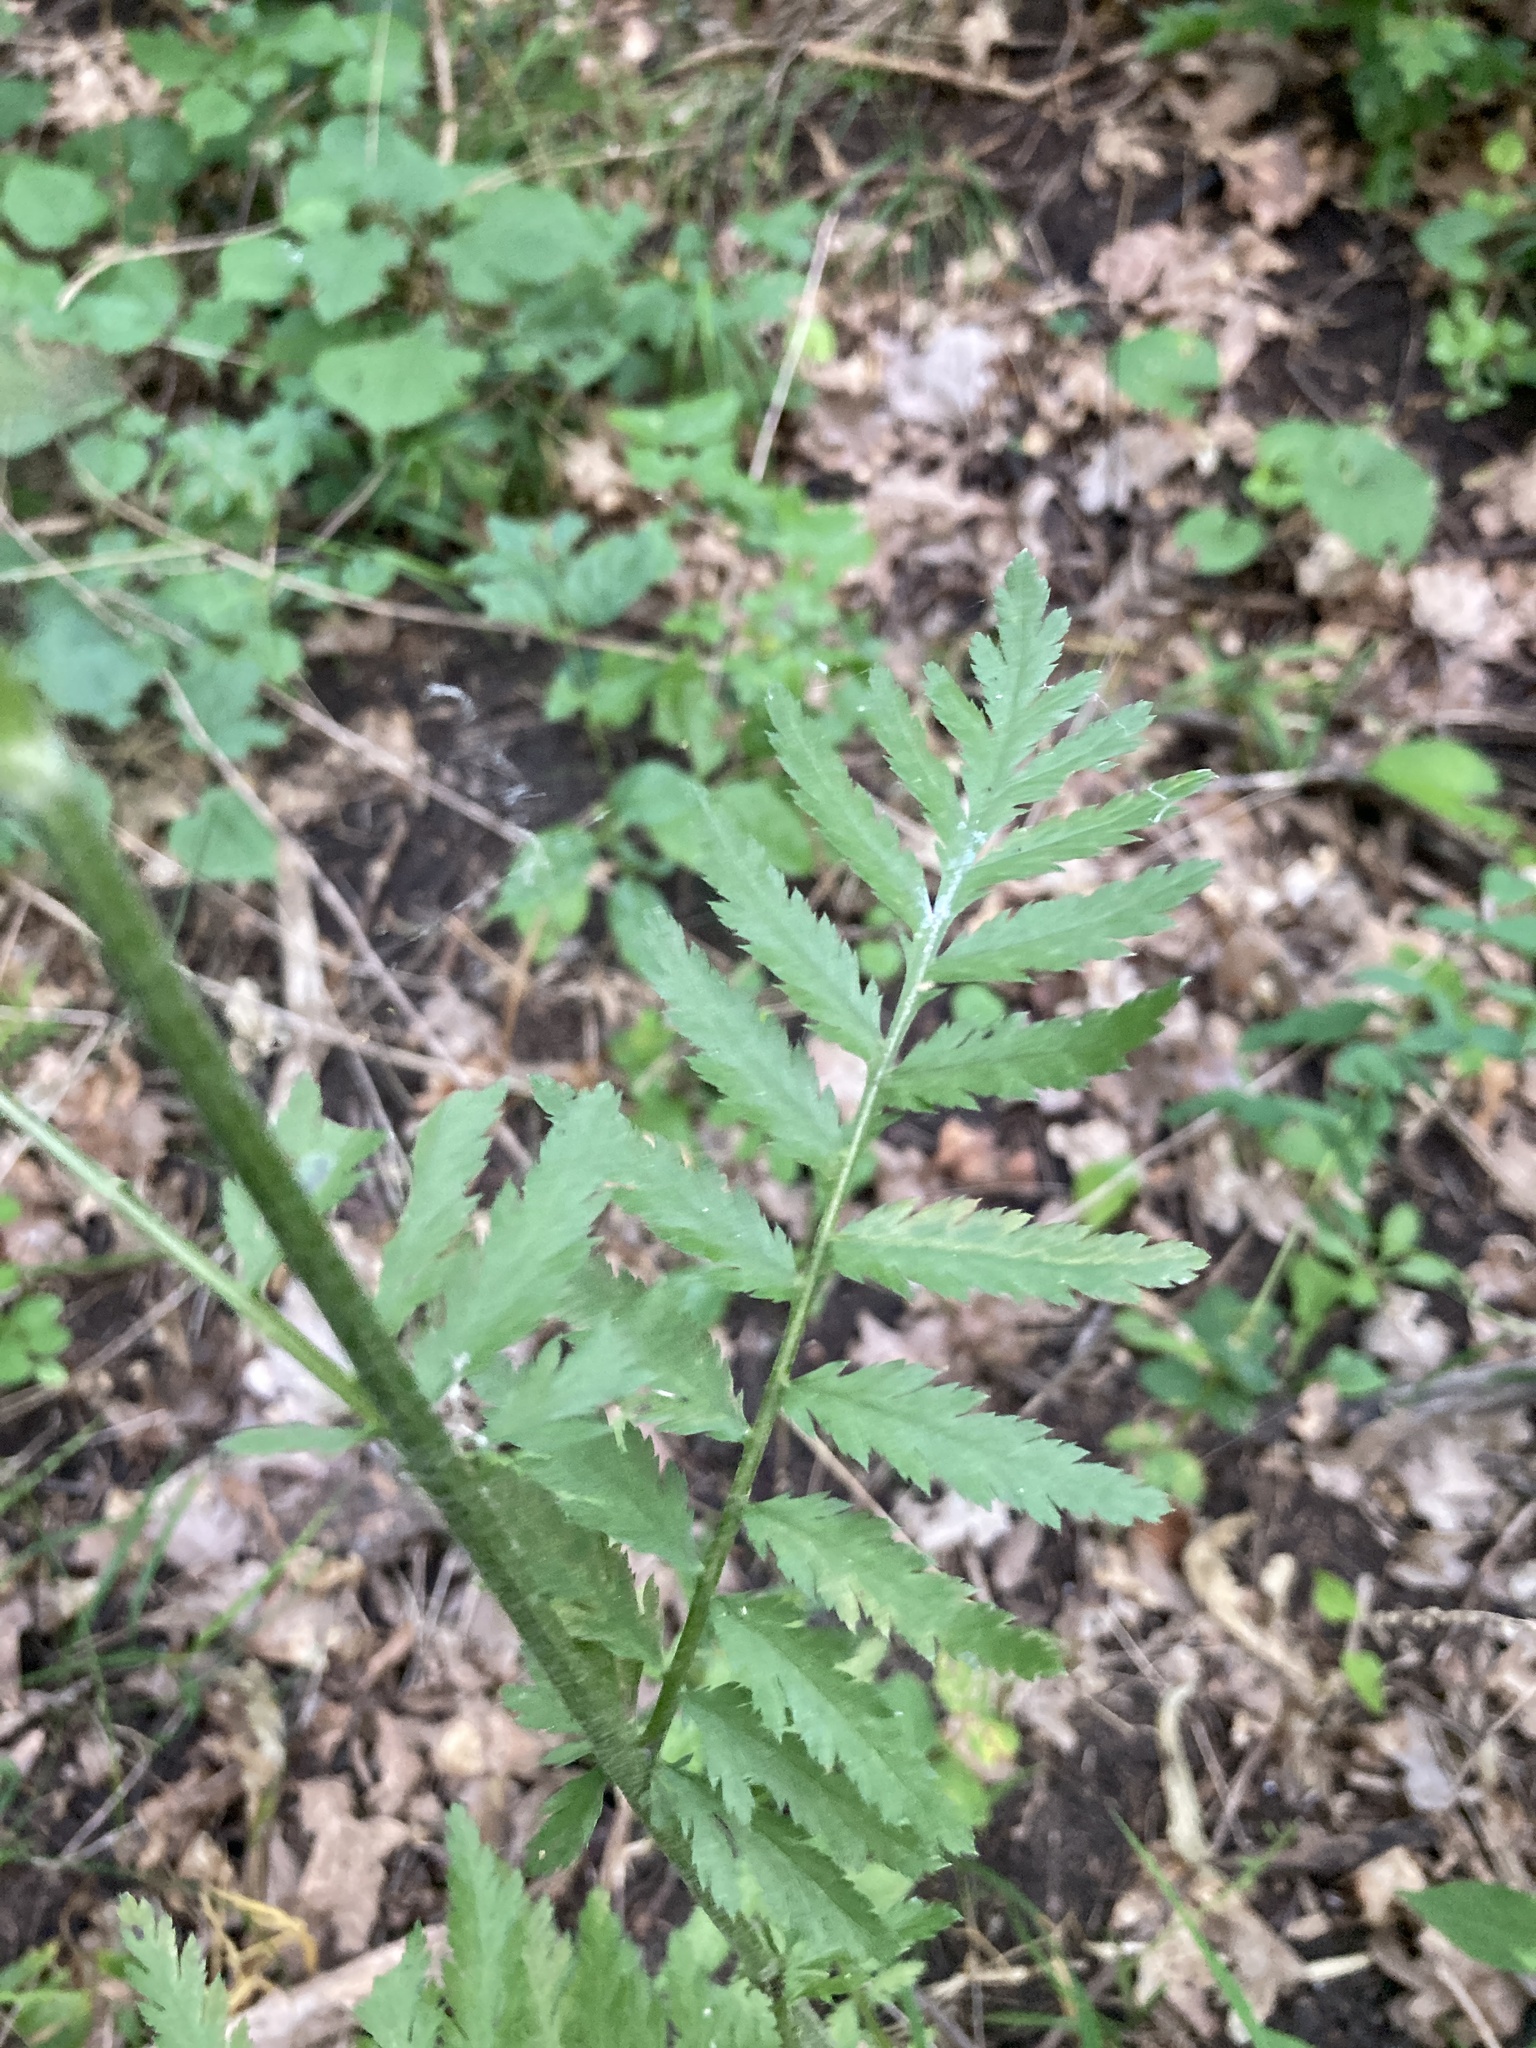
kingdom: Plantae
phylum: Tracheophyta
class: Magnoliopsida
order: Asterales
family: Asteraceae
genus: Tanacetum
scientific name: Tanacetum corymbosum
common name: Scentless feverfew
